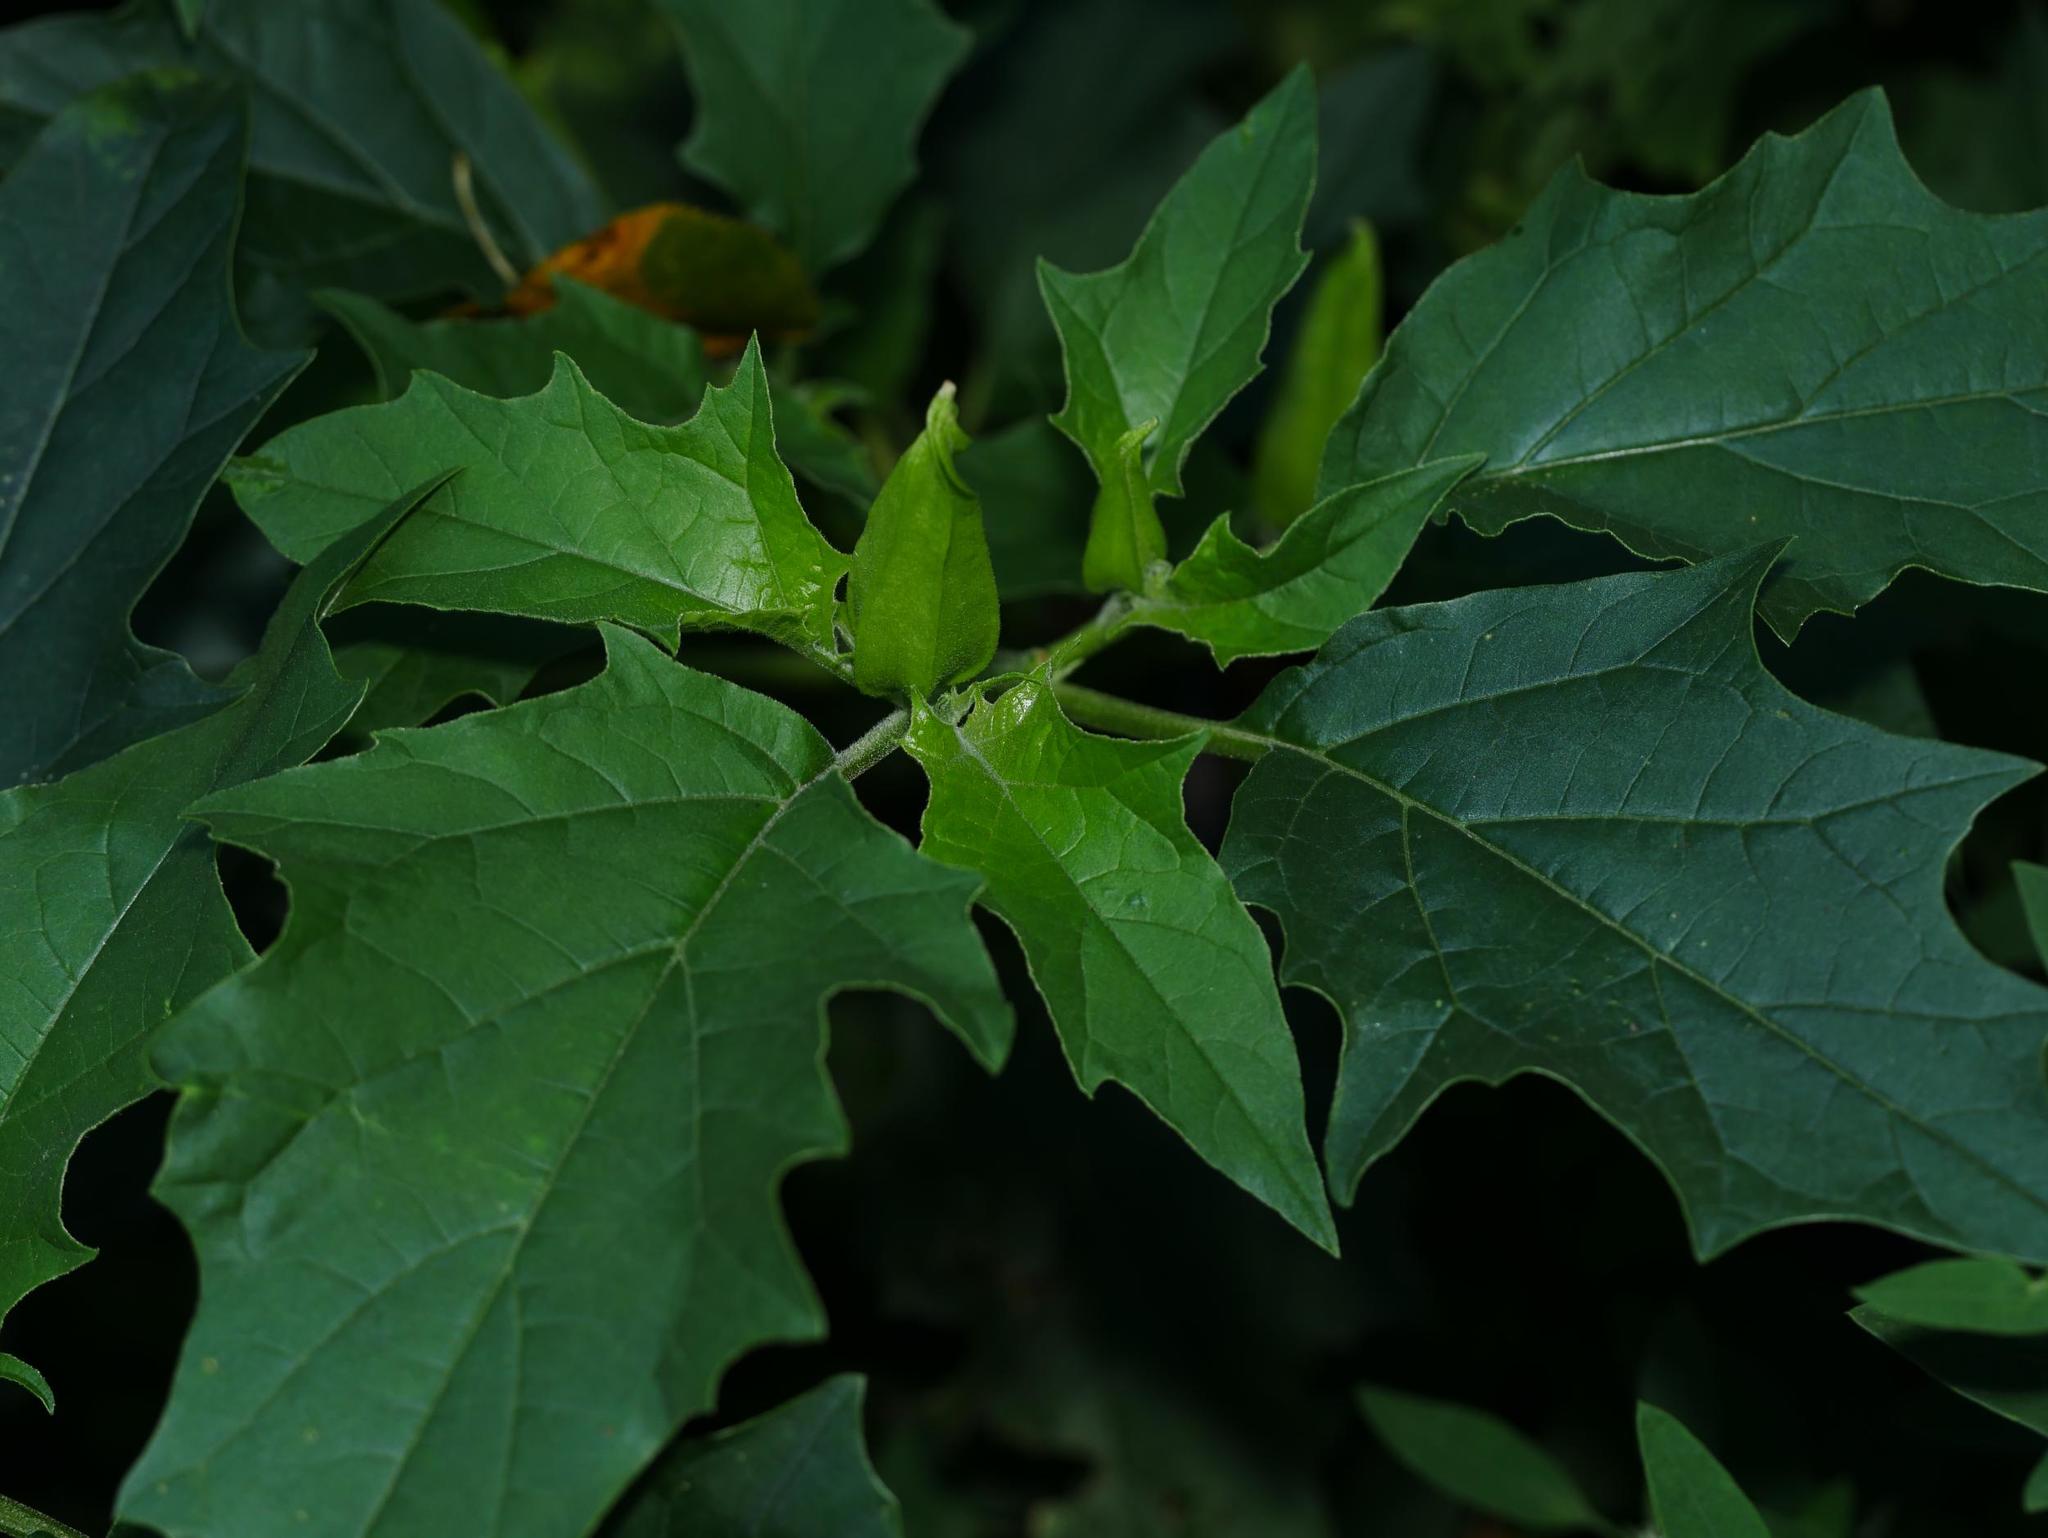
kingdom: Plantae
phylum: Tracheophyta
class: Magnoliopsida
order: Solanales
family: Solanaceae
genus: Datura
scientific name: Datura stramonium
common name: Thorn-apple
